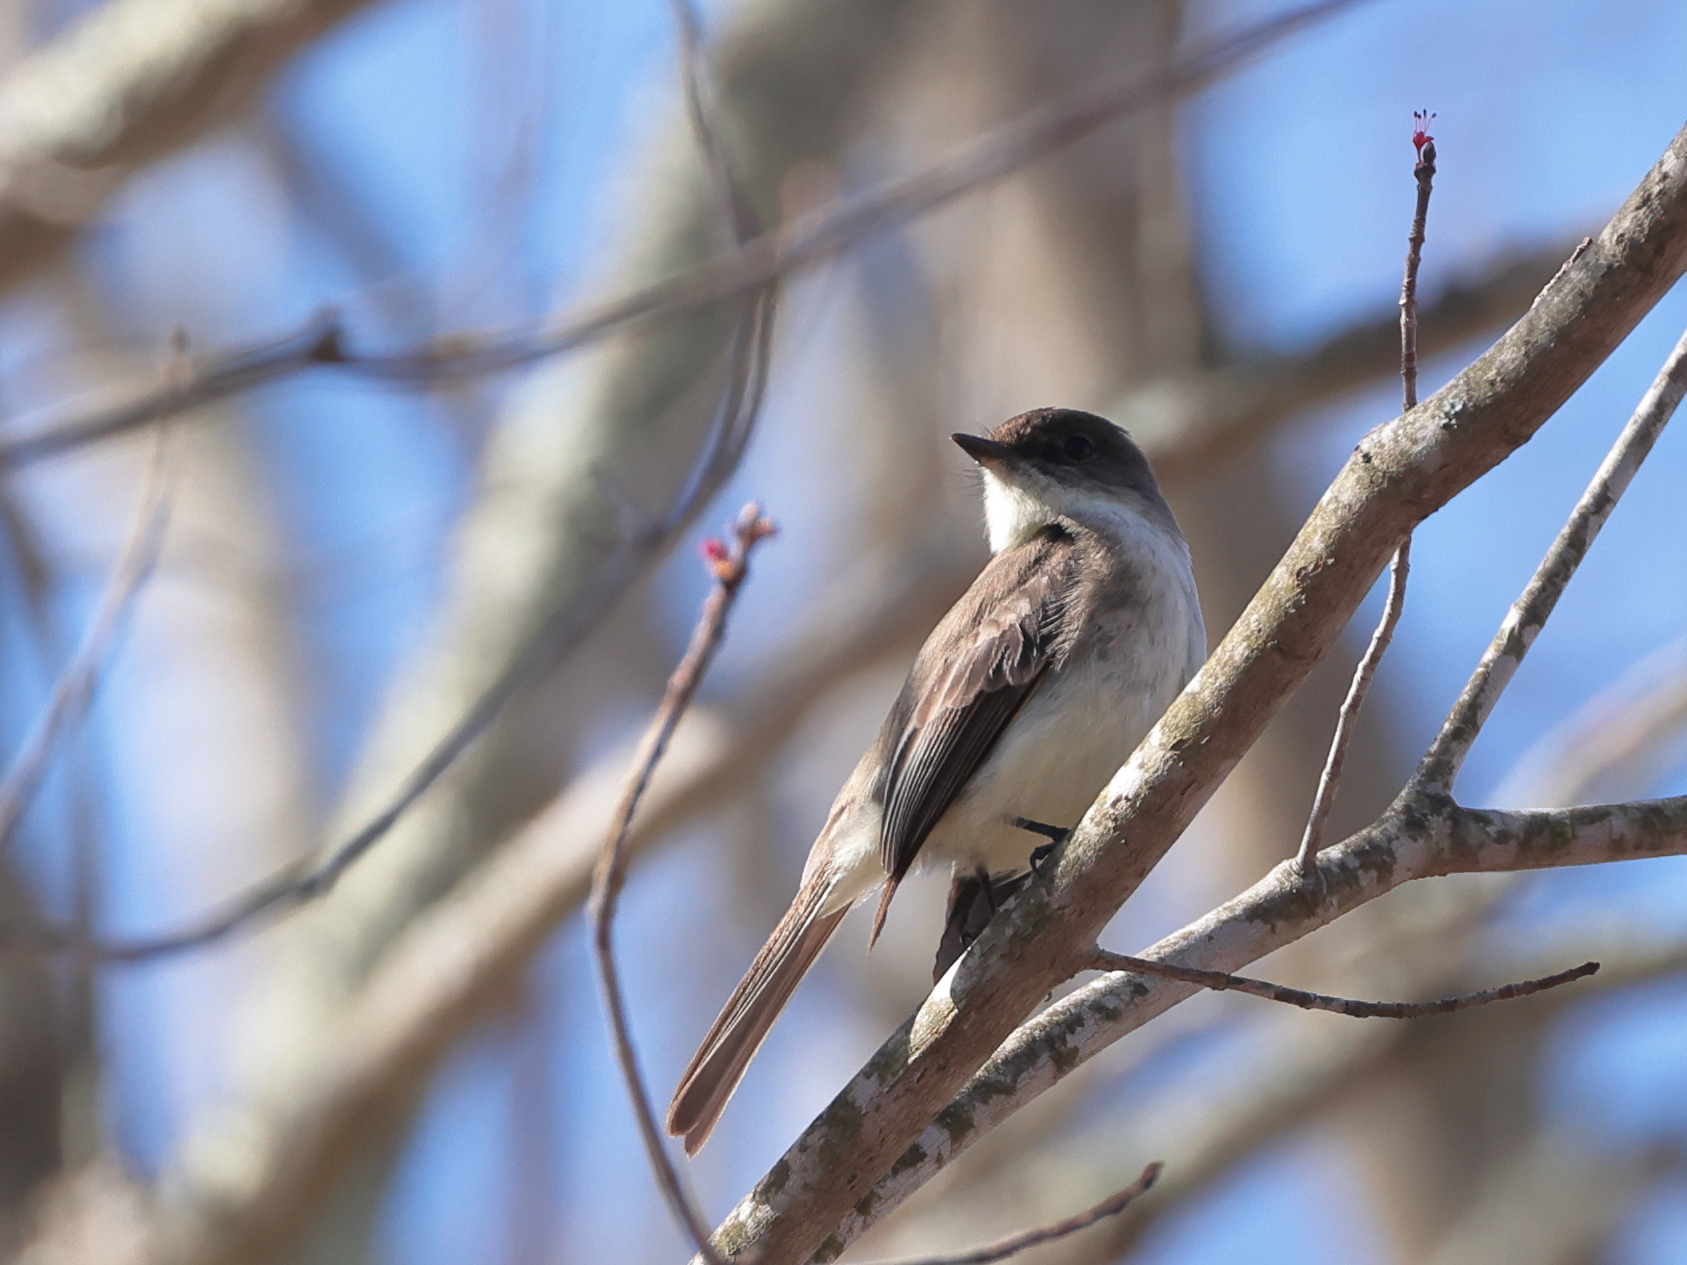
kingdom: Animalia
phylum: Chordata
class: Aves
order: Passeriformes
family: Tyrannidae
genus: Sayornis
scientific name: Sayornis phoebe
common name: Eastern phoebe
